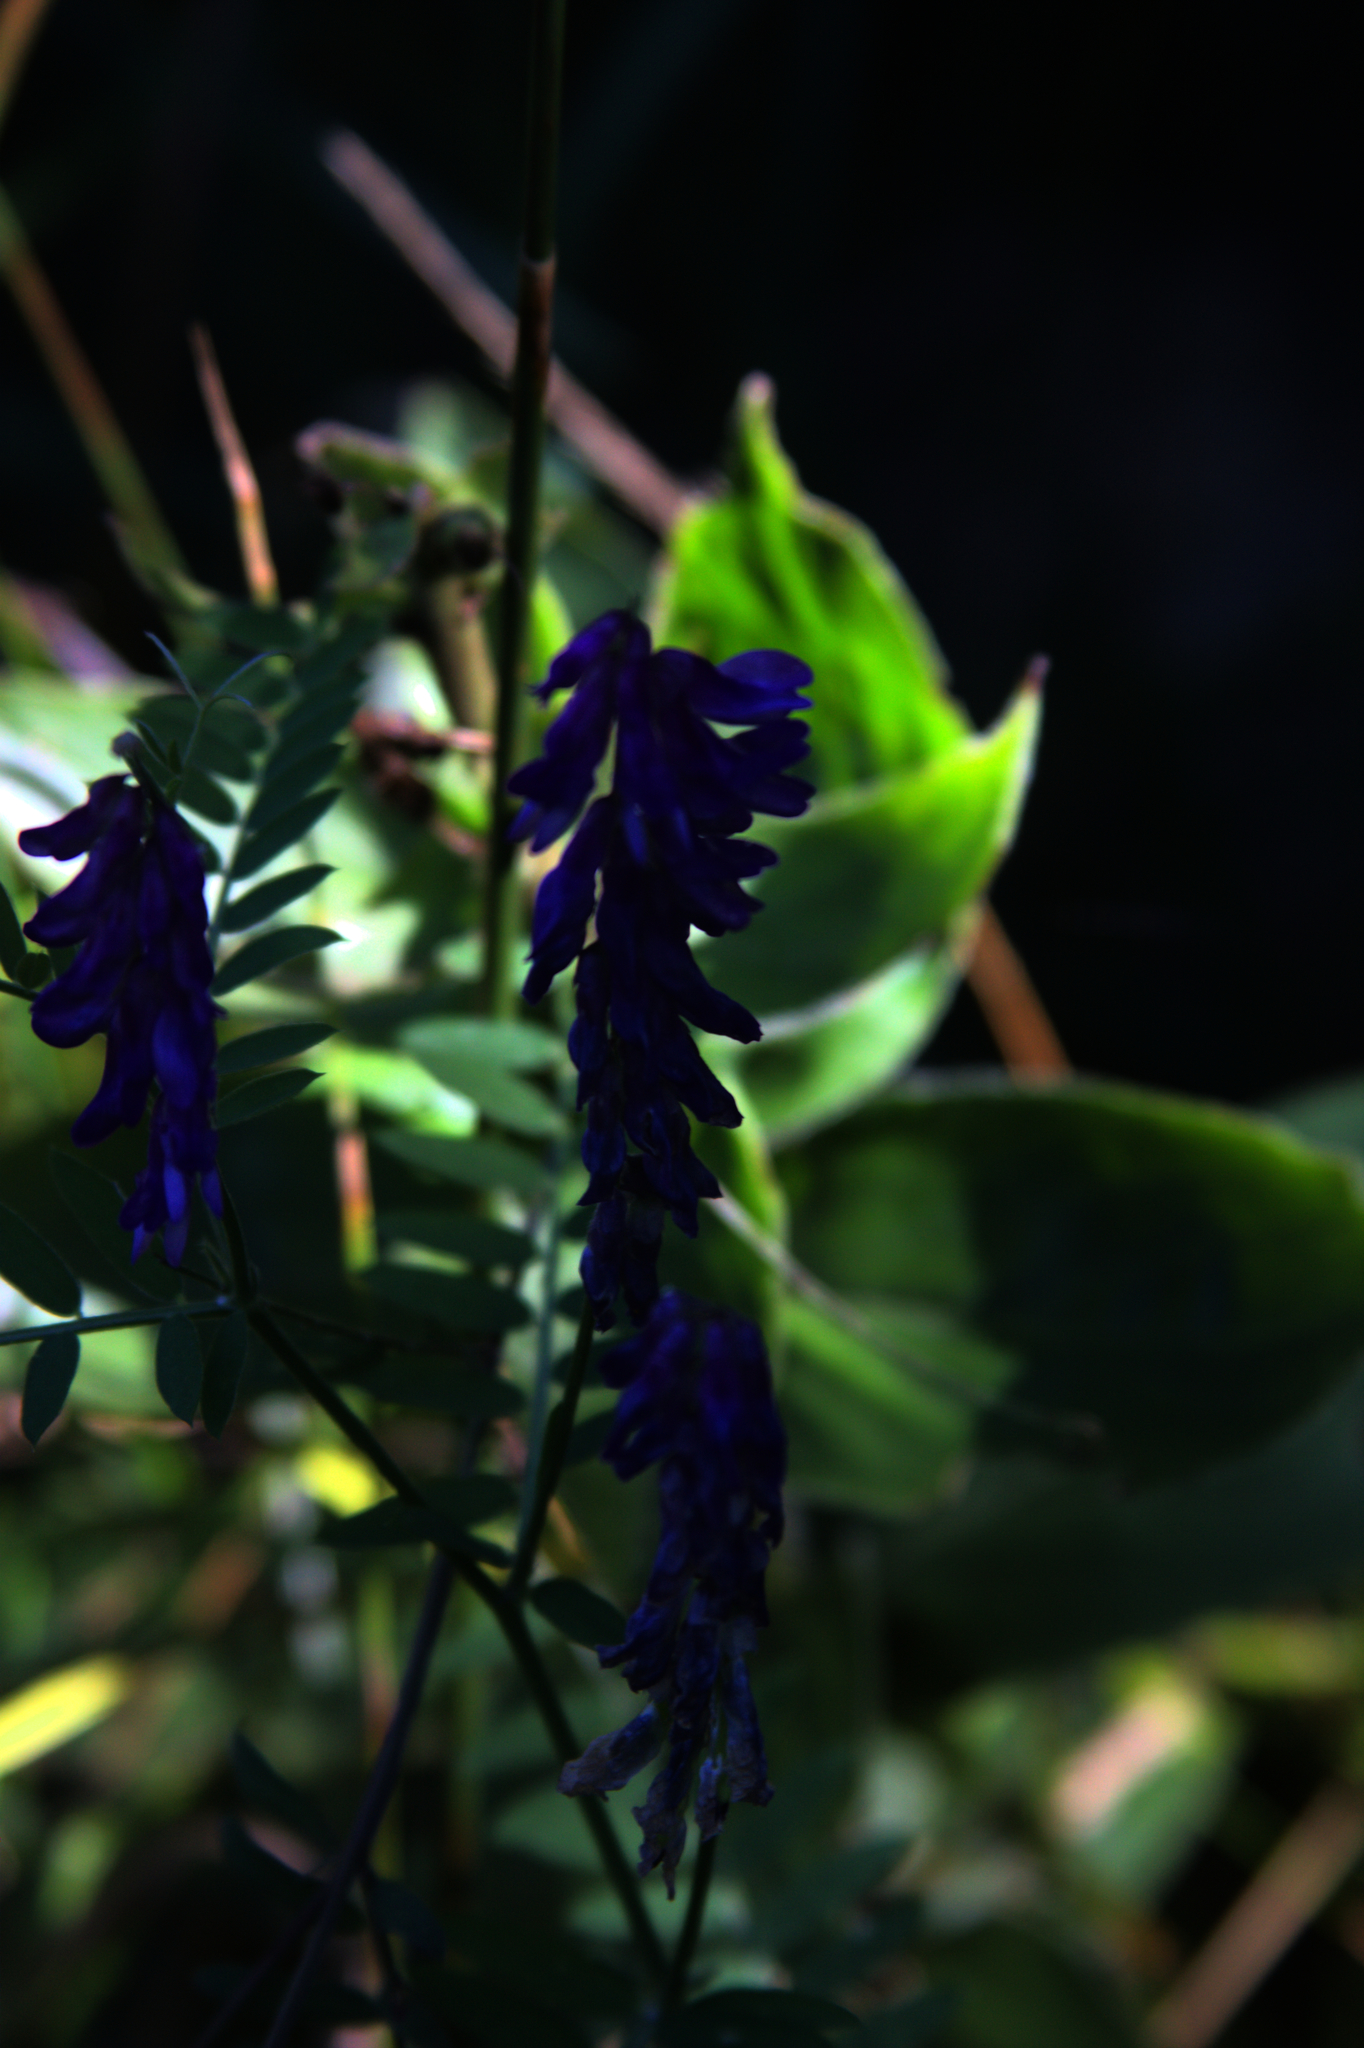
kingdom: Plantae
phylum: Tracheophyta
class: Magnoliopsida
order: Fabales
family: Fabaceae
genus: Vicia
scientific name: Vicia cracca
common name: Bird vetch
